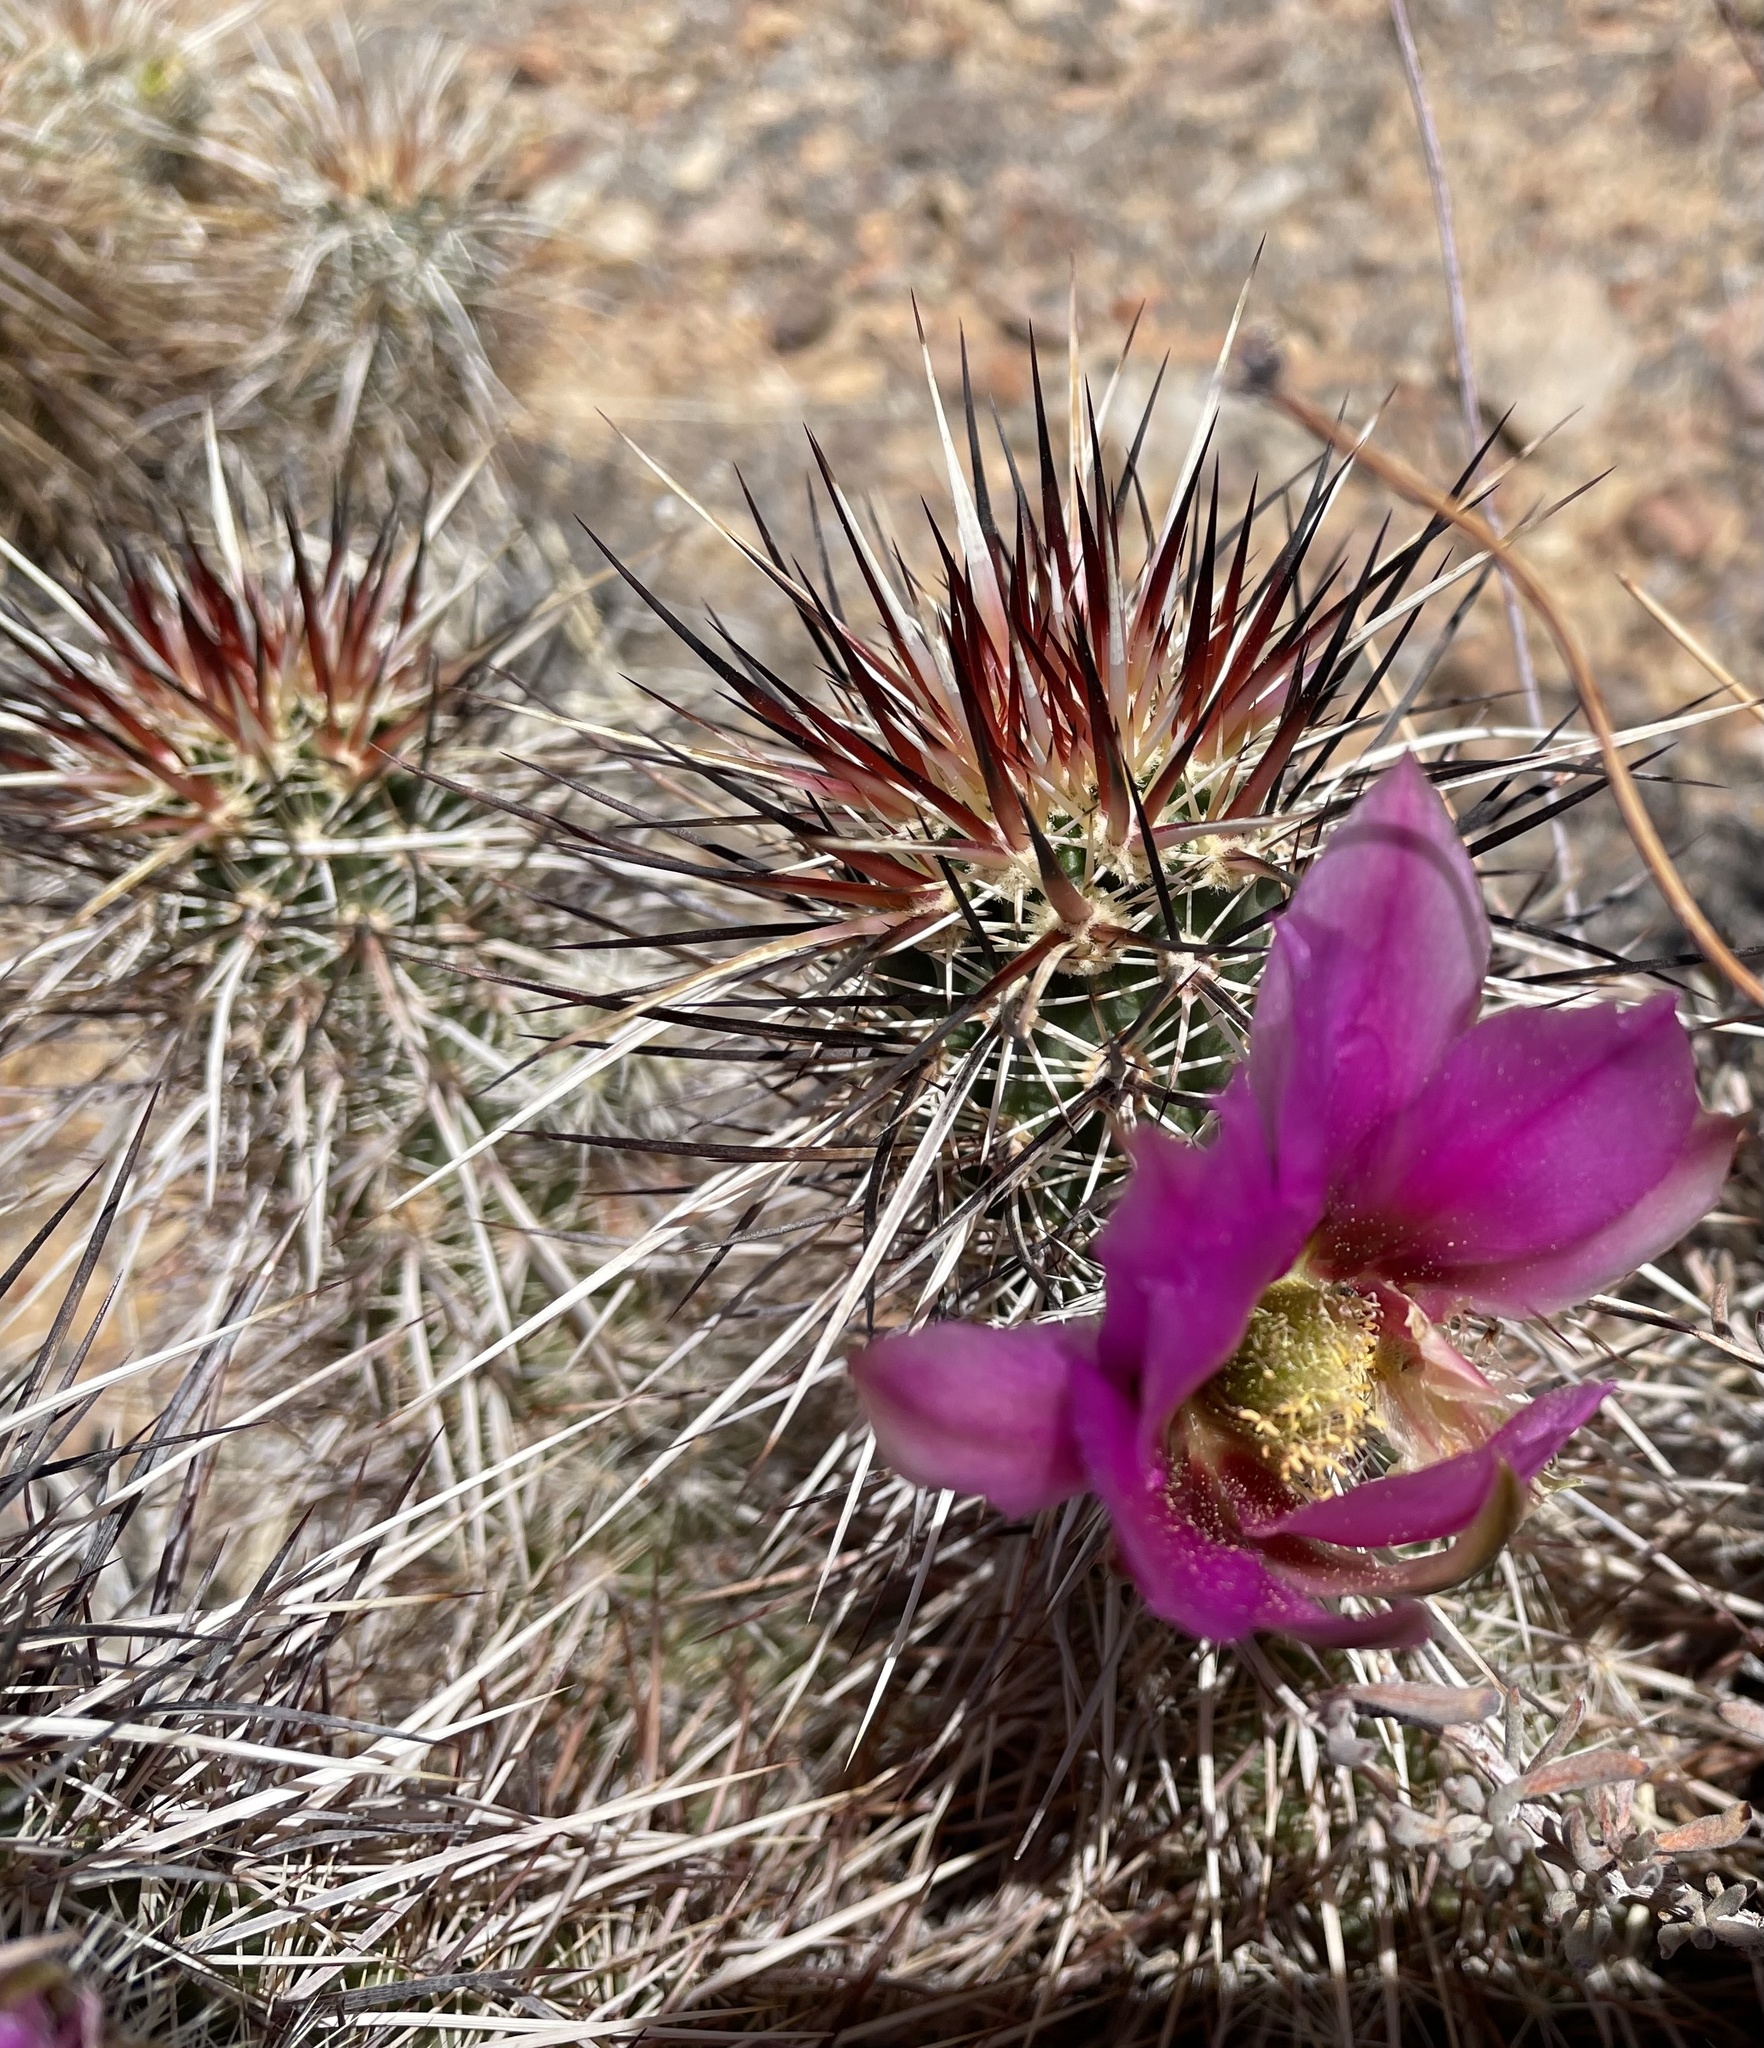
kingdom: Plantae
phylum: Tracheophyta
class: Magnoliopsida
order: Caryophyllales
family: Cactaceae
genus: Echinocereus
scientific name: Echinocereus engelmannii
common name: Engelmann's hedgehog cactus
